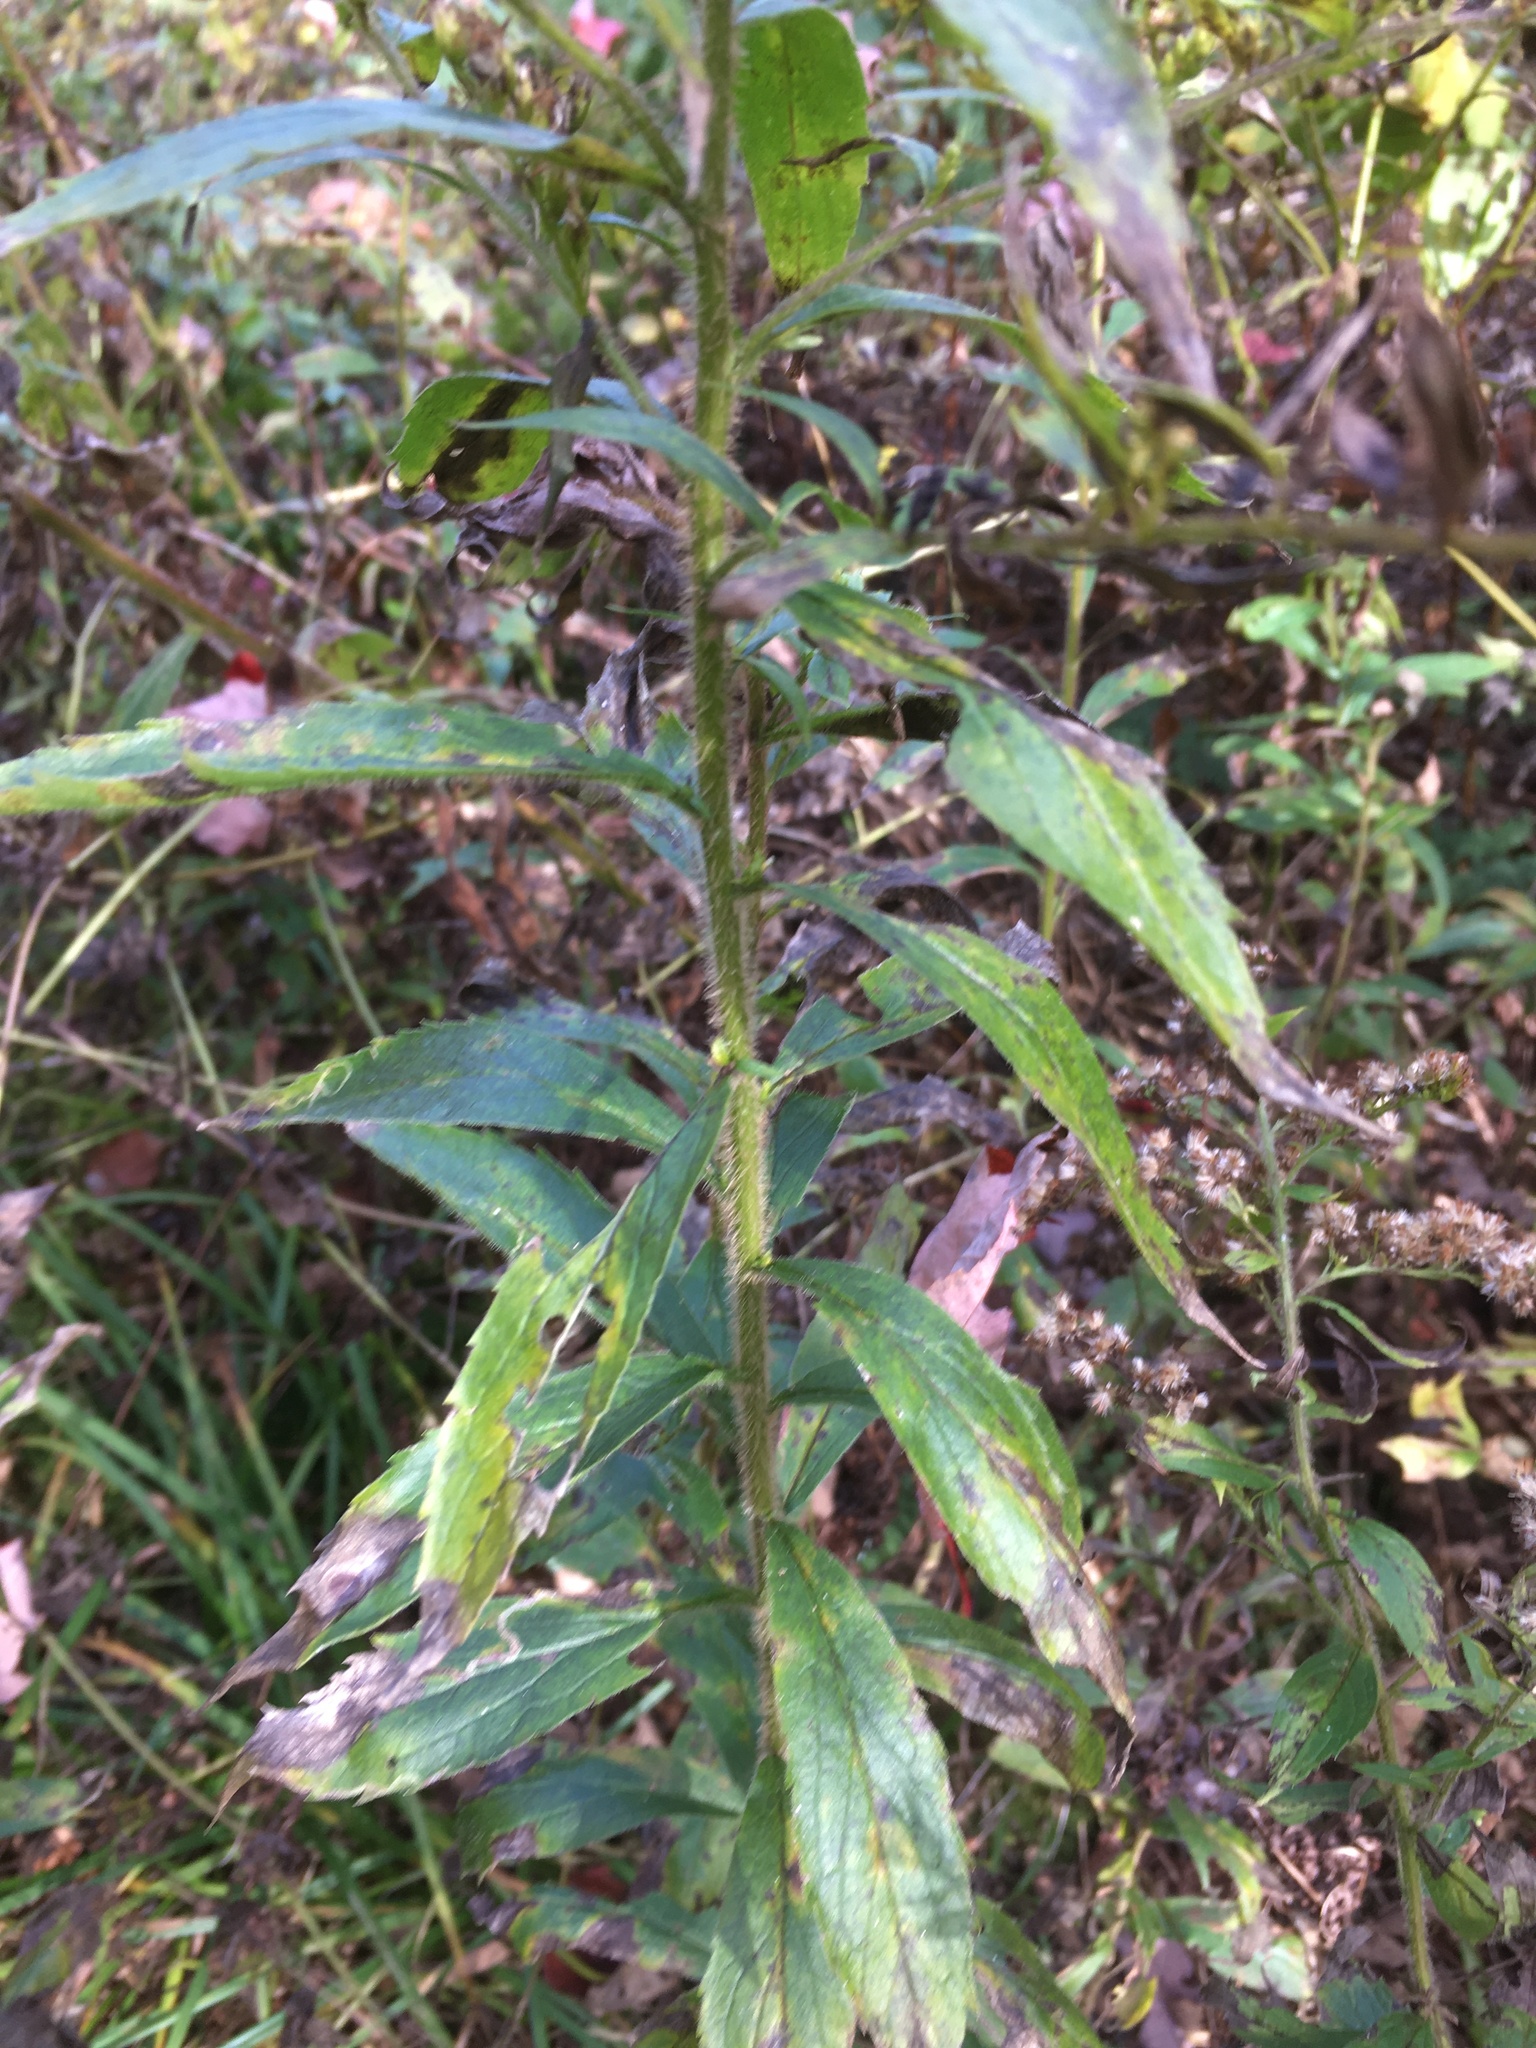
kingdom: Plantae
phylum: Tracheophyta
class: Magnoliopsida
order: Asterales
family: Asteraceae
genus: Solidago
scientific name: Solidago rugosa
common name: Rough-stemmed goldenrod
